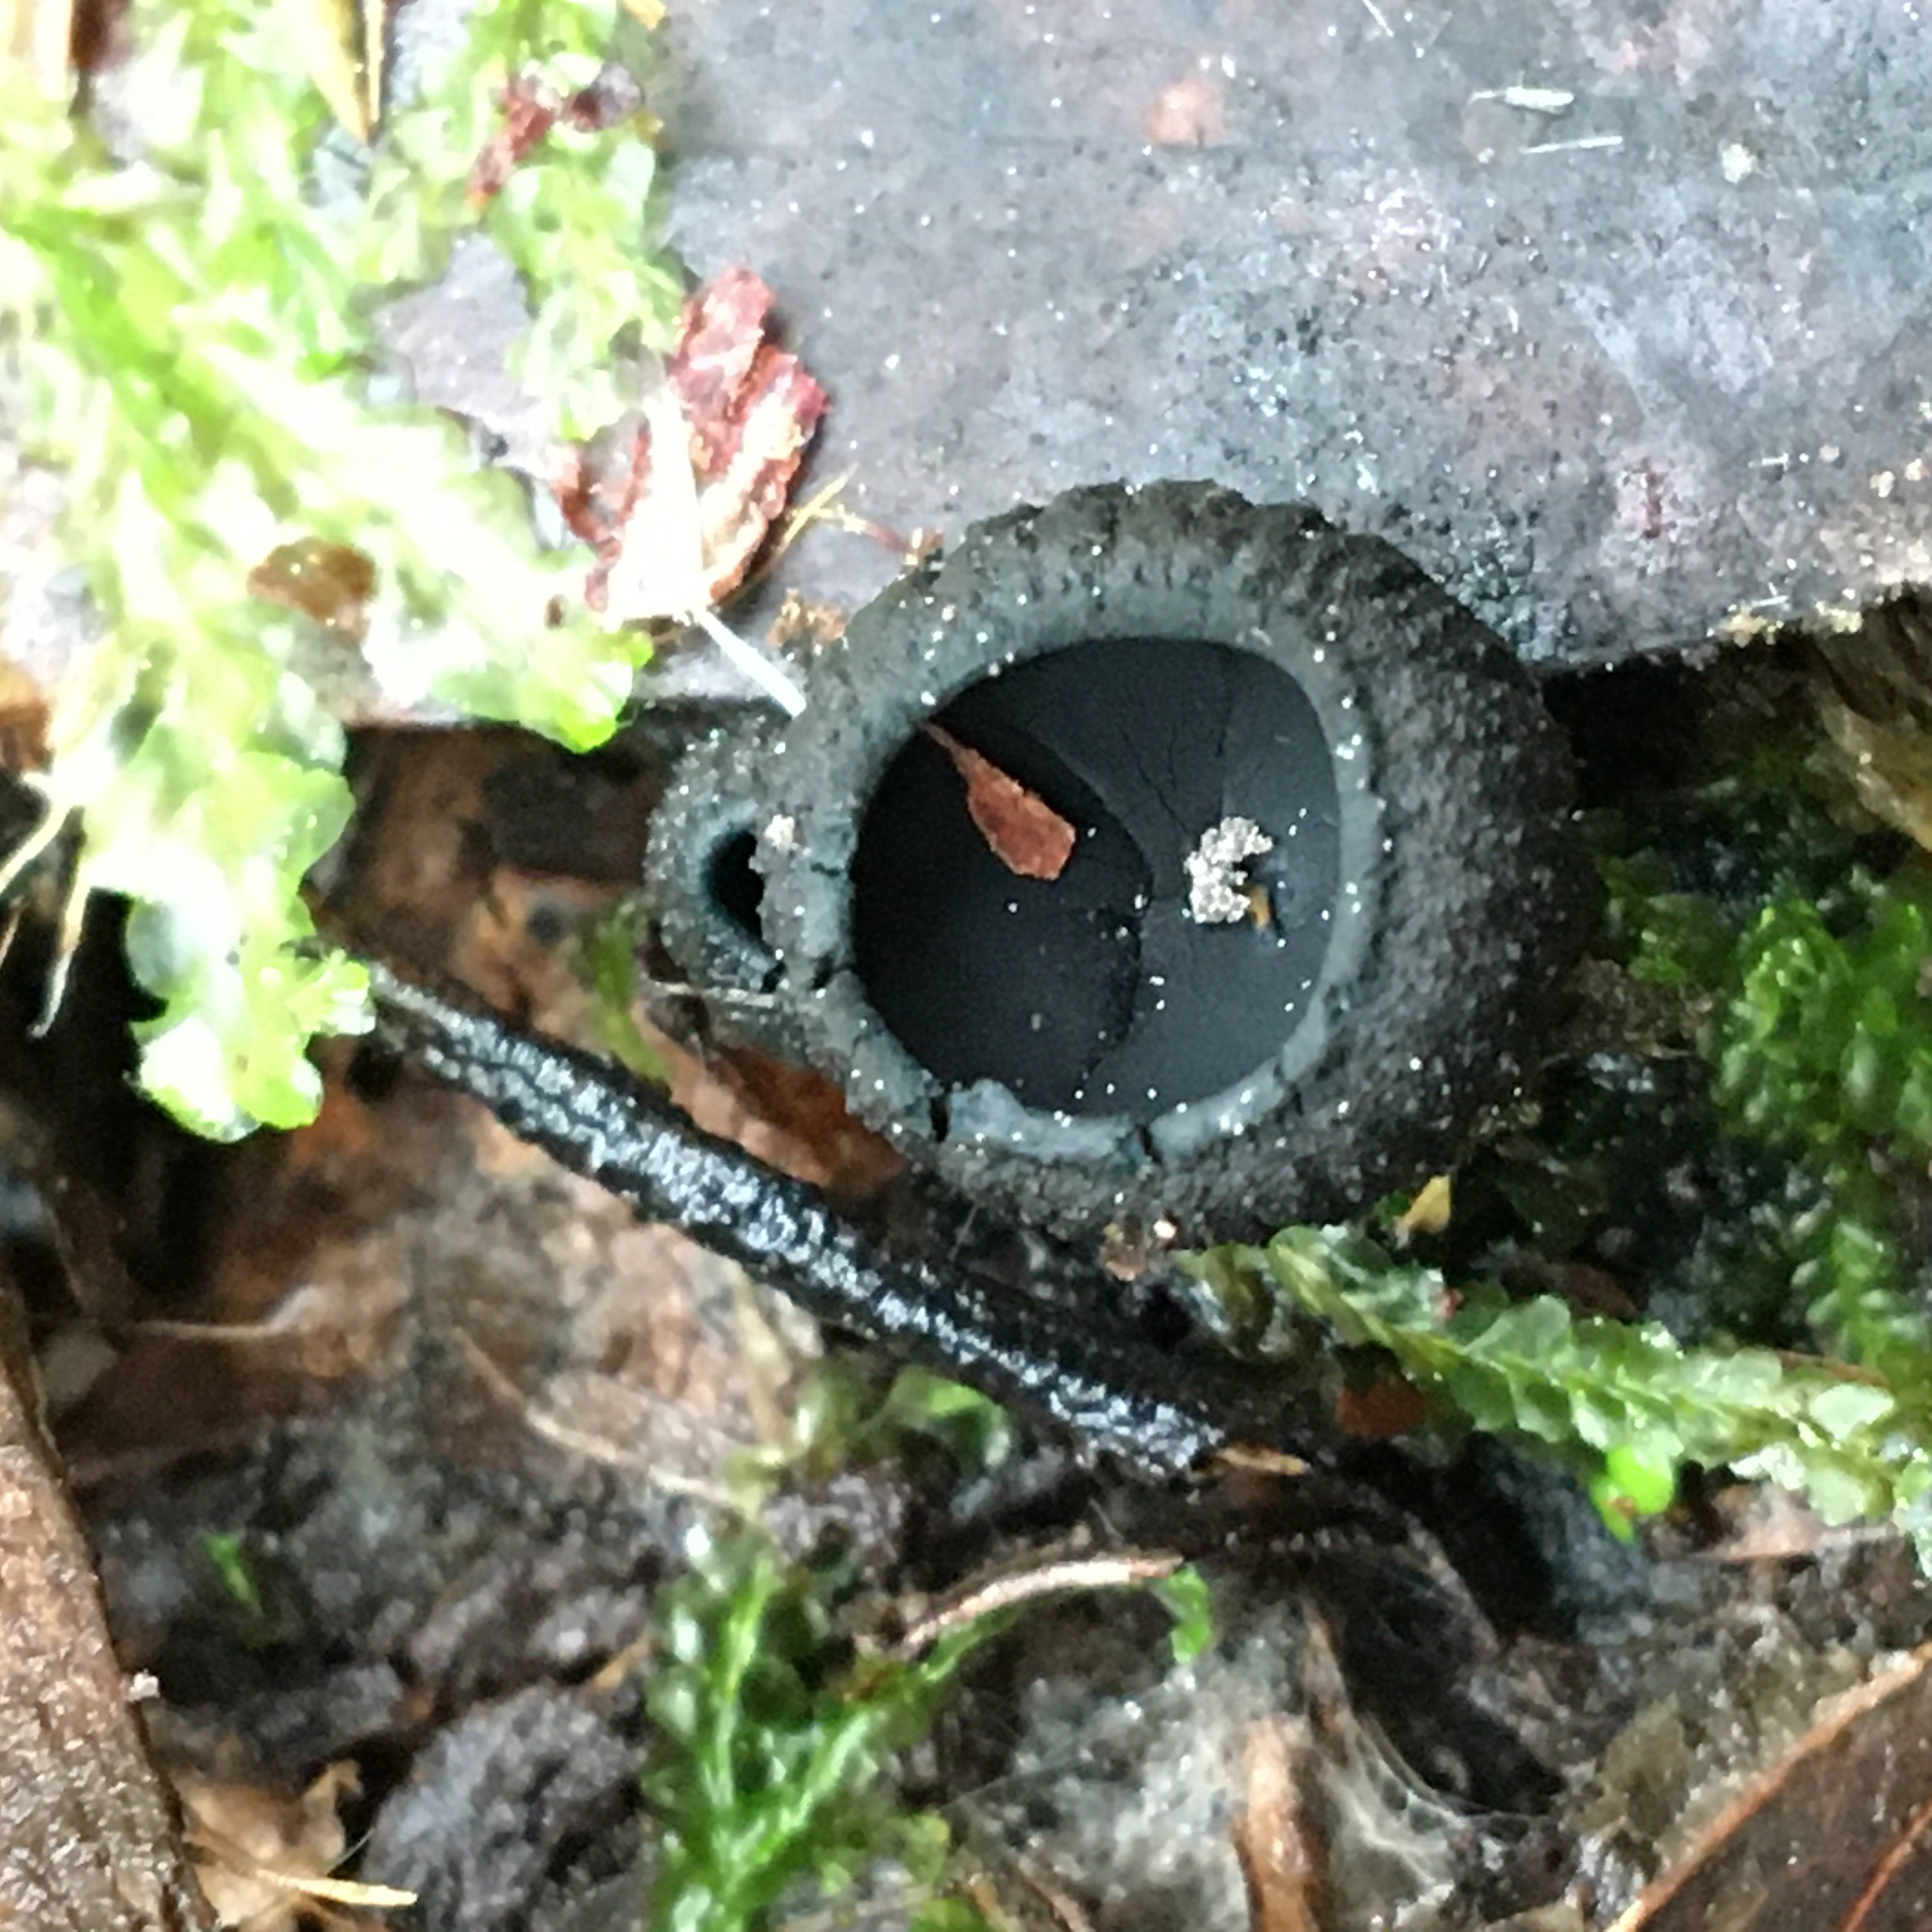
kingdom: Fungi
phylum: Ascomycota
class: Pezizomycetes
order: Pezizales
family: Sarcosomataceae
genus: Plectania
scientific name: Plectania platensis
